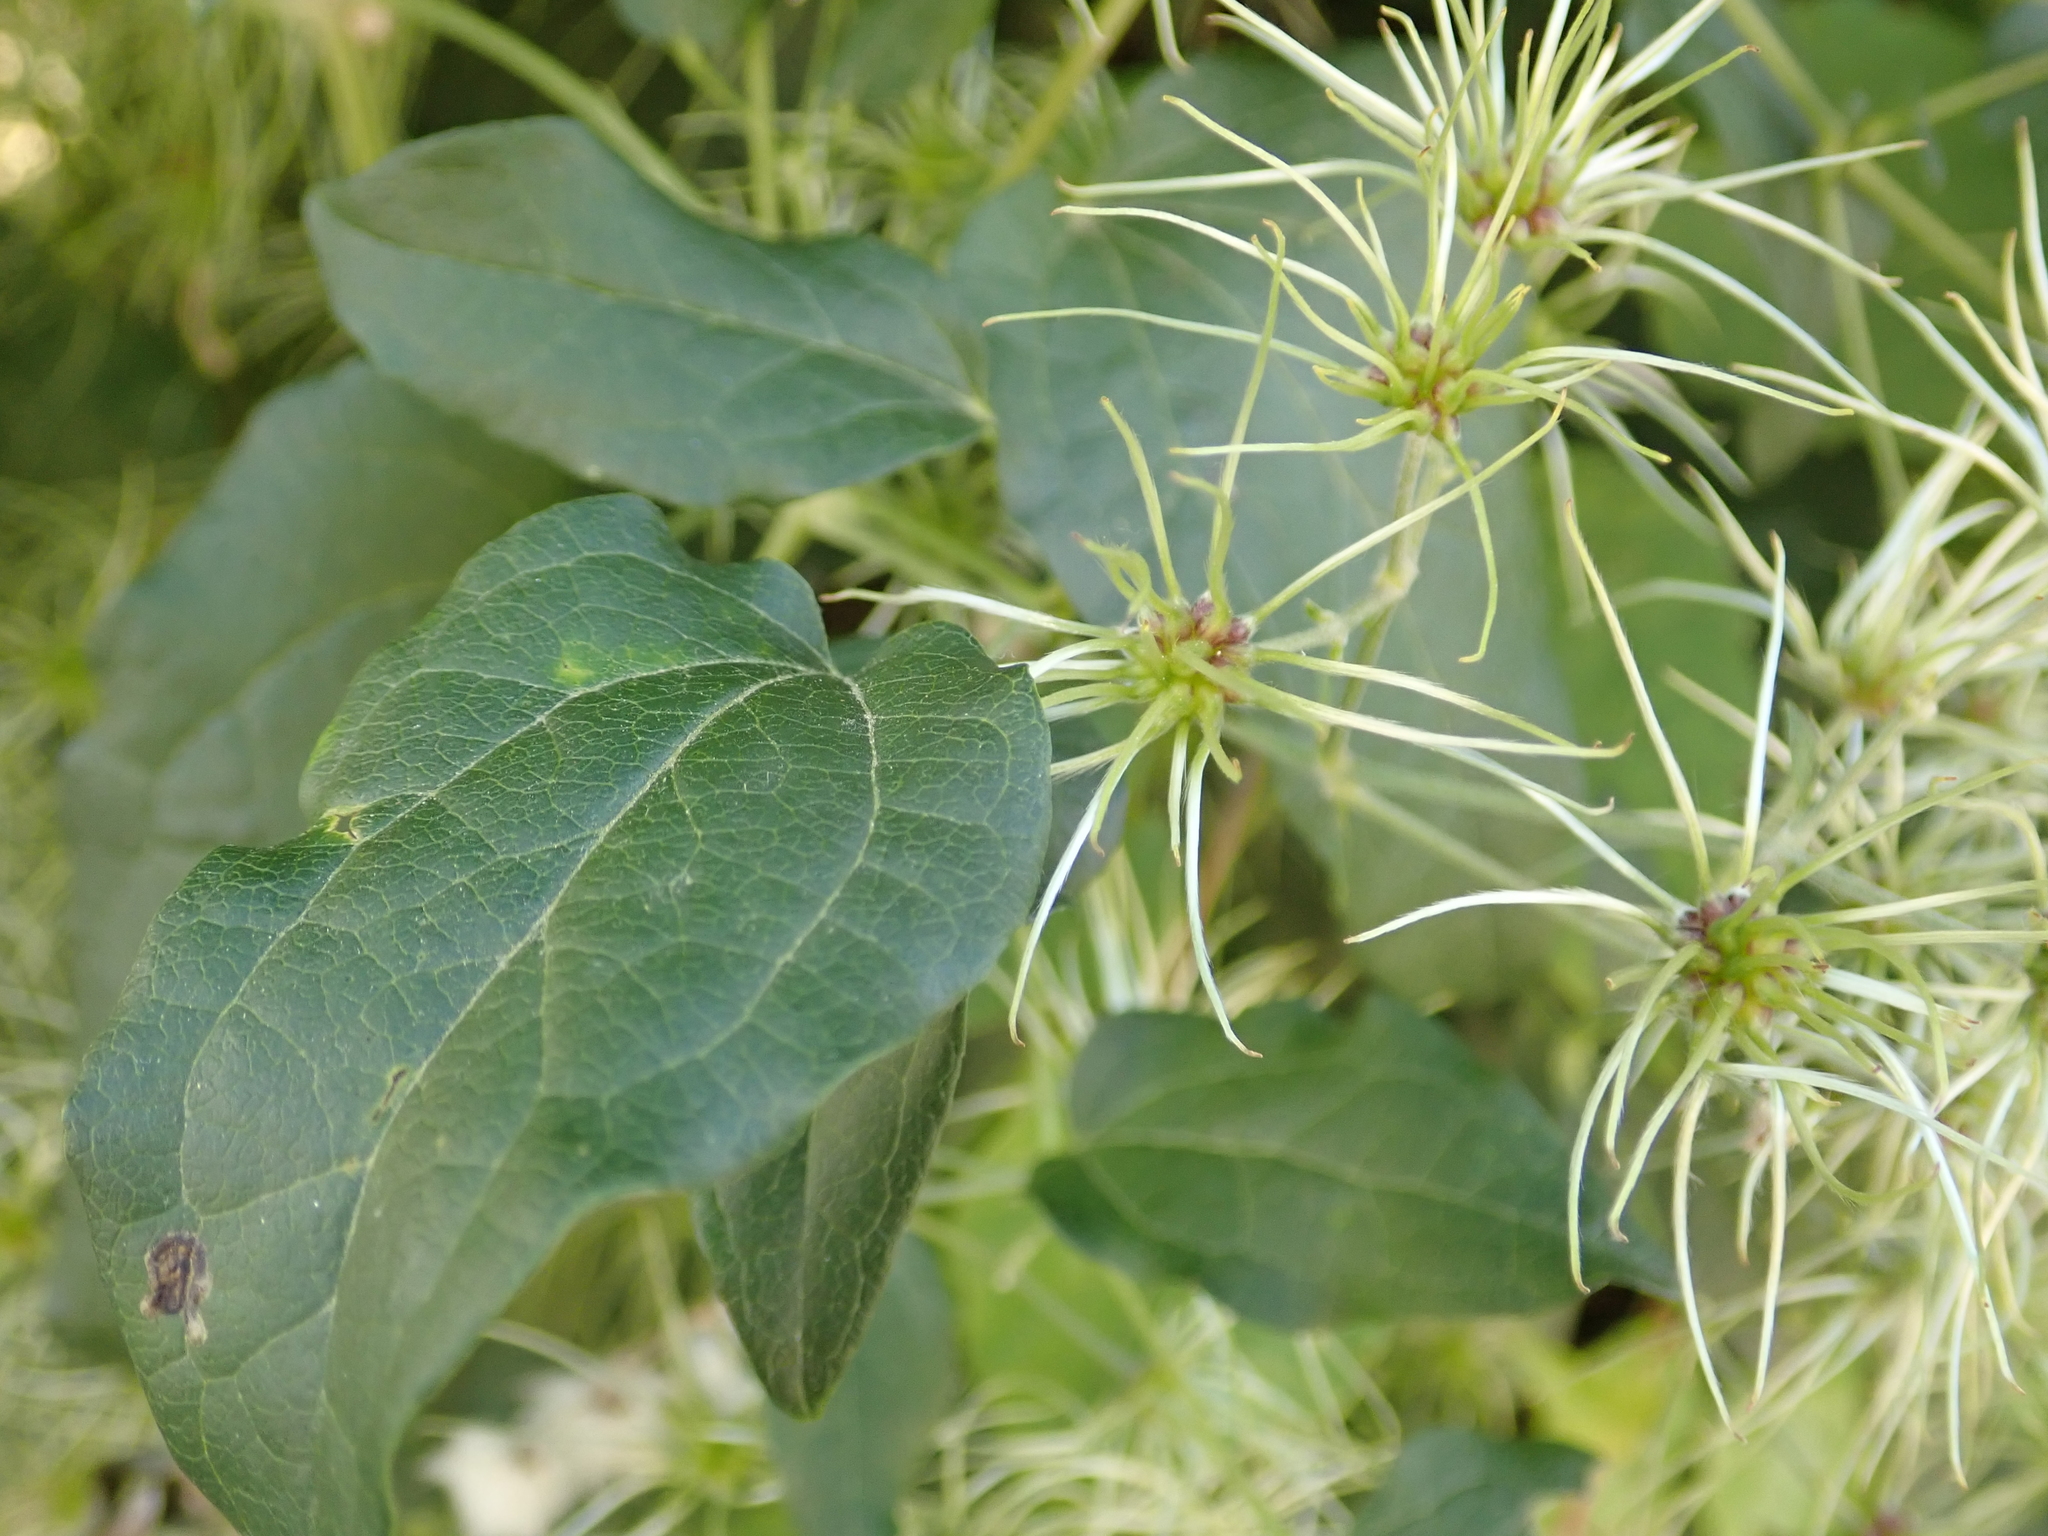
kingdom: Plantae
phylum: Tracheophyta
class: Magnoliopsida
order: Ranunculales
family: Ranunculaceae
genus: Clematis
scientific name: Clematis vitalba
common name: Evergreen clematis
